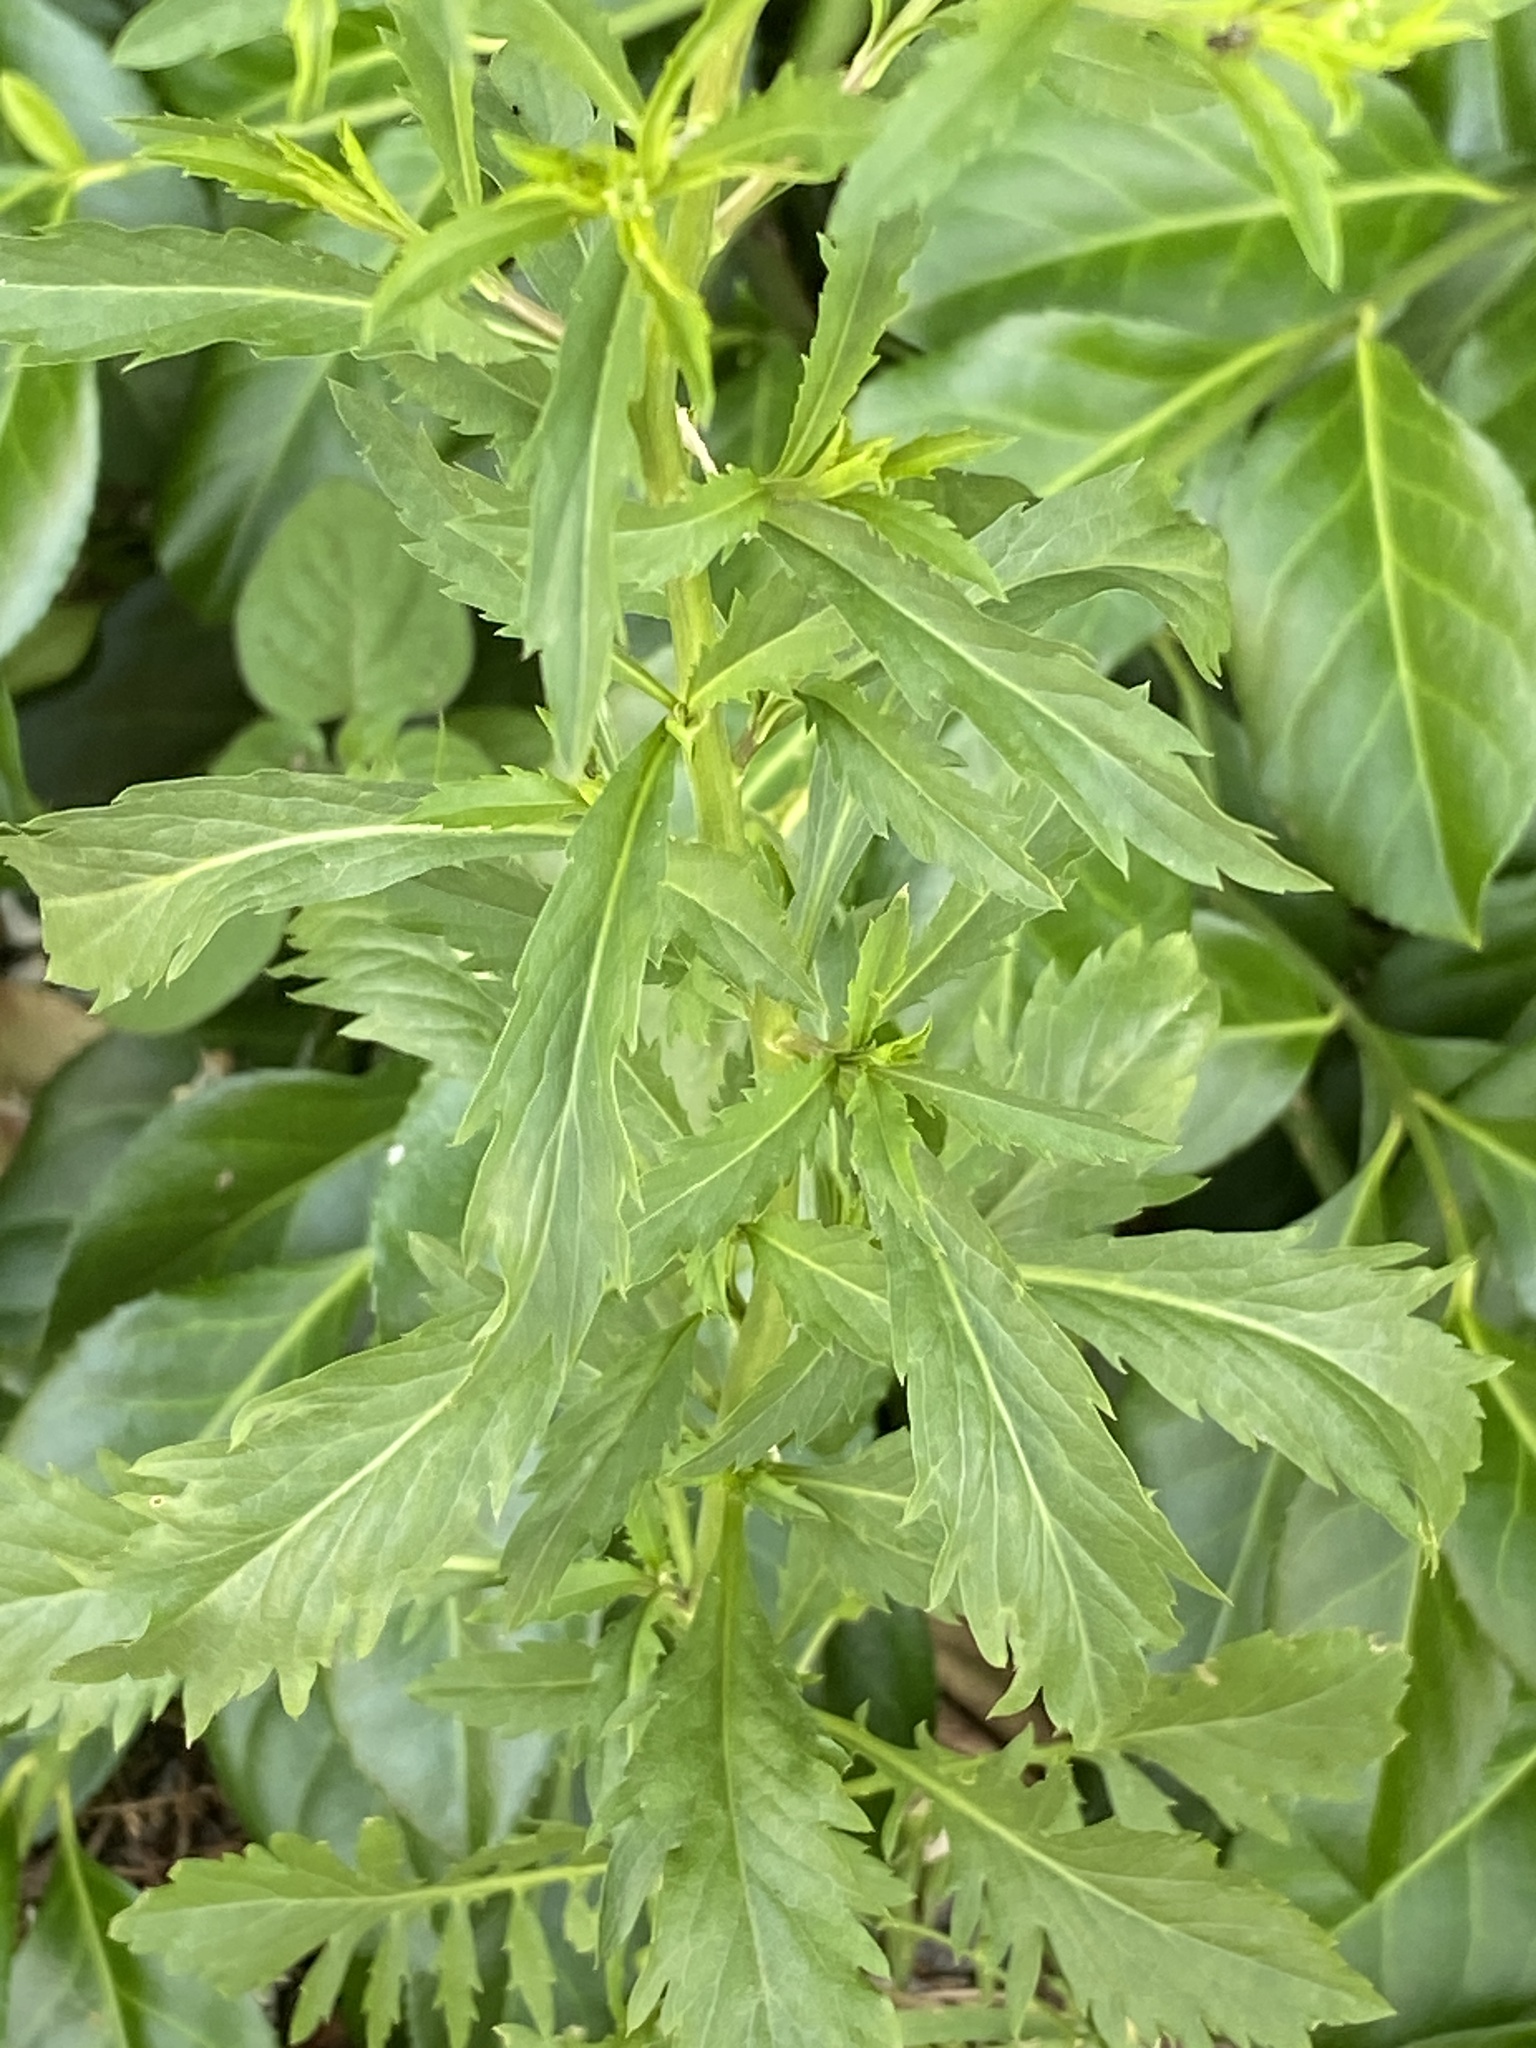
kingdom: Plantae
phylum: Tracheophyta
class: Magnoliopsida
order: Brassicales
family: Brassicaceae
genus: Lepidium
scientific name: Lepidium virginicum
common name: Least pepperwort
